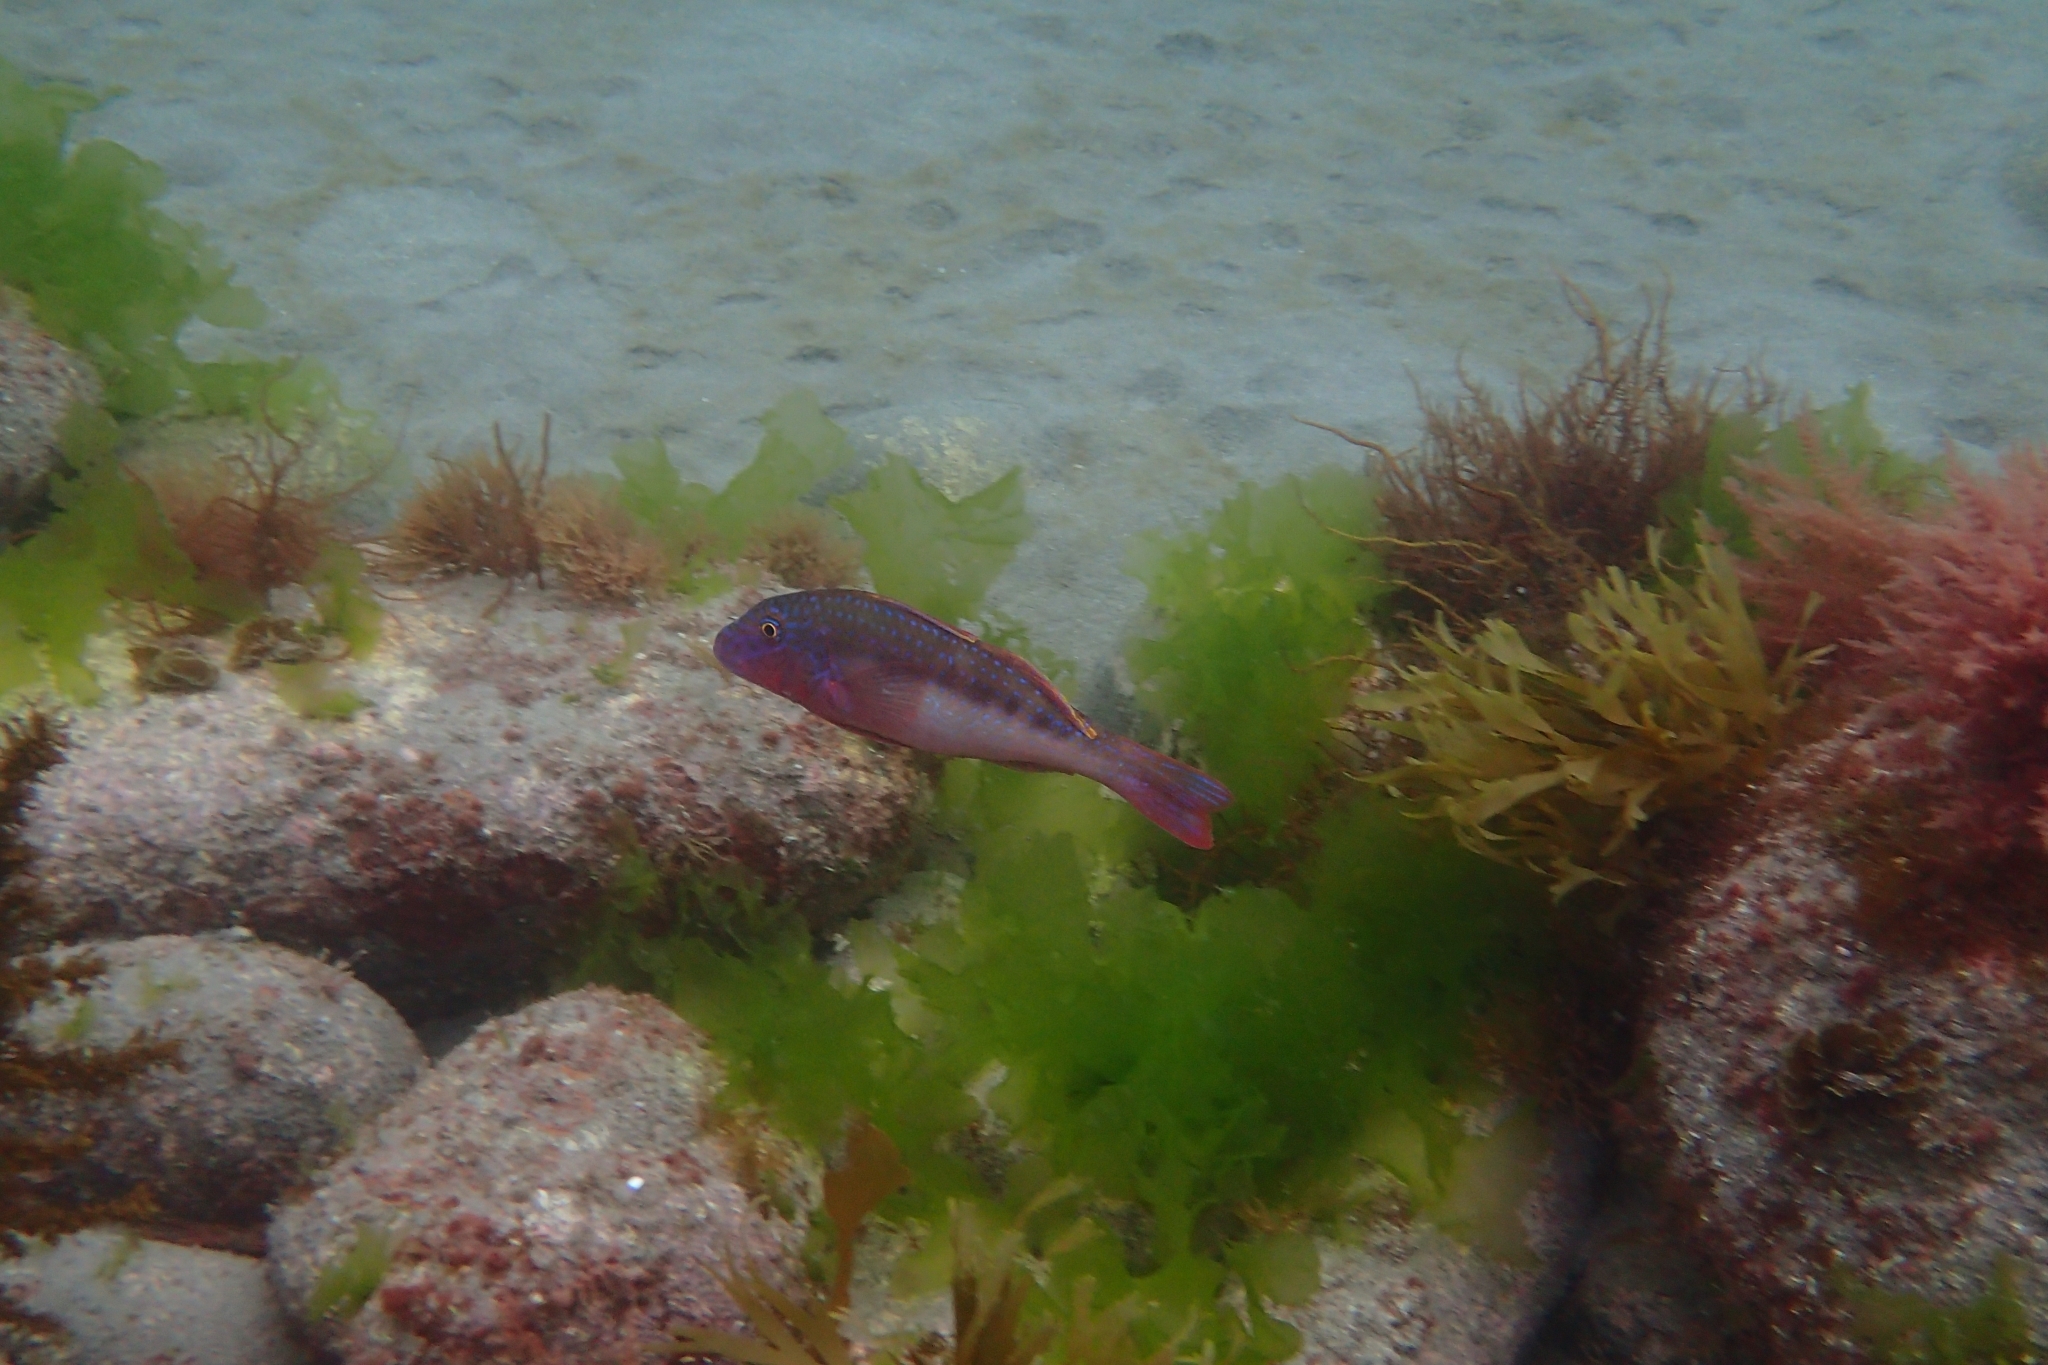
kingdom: Animalia
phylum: Chordata
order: Perciformes
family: Mullidae
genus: Upeneichthys
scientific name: Upeneichthys lineatus
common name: Red mullet
